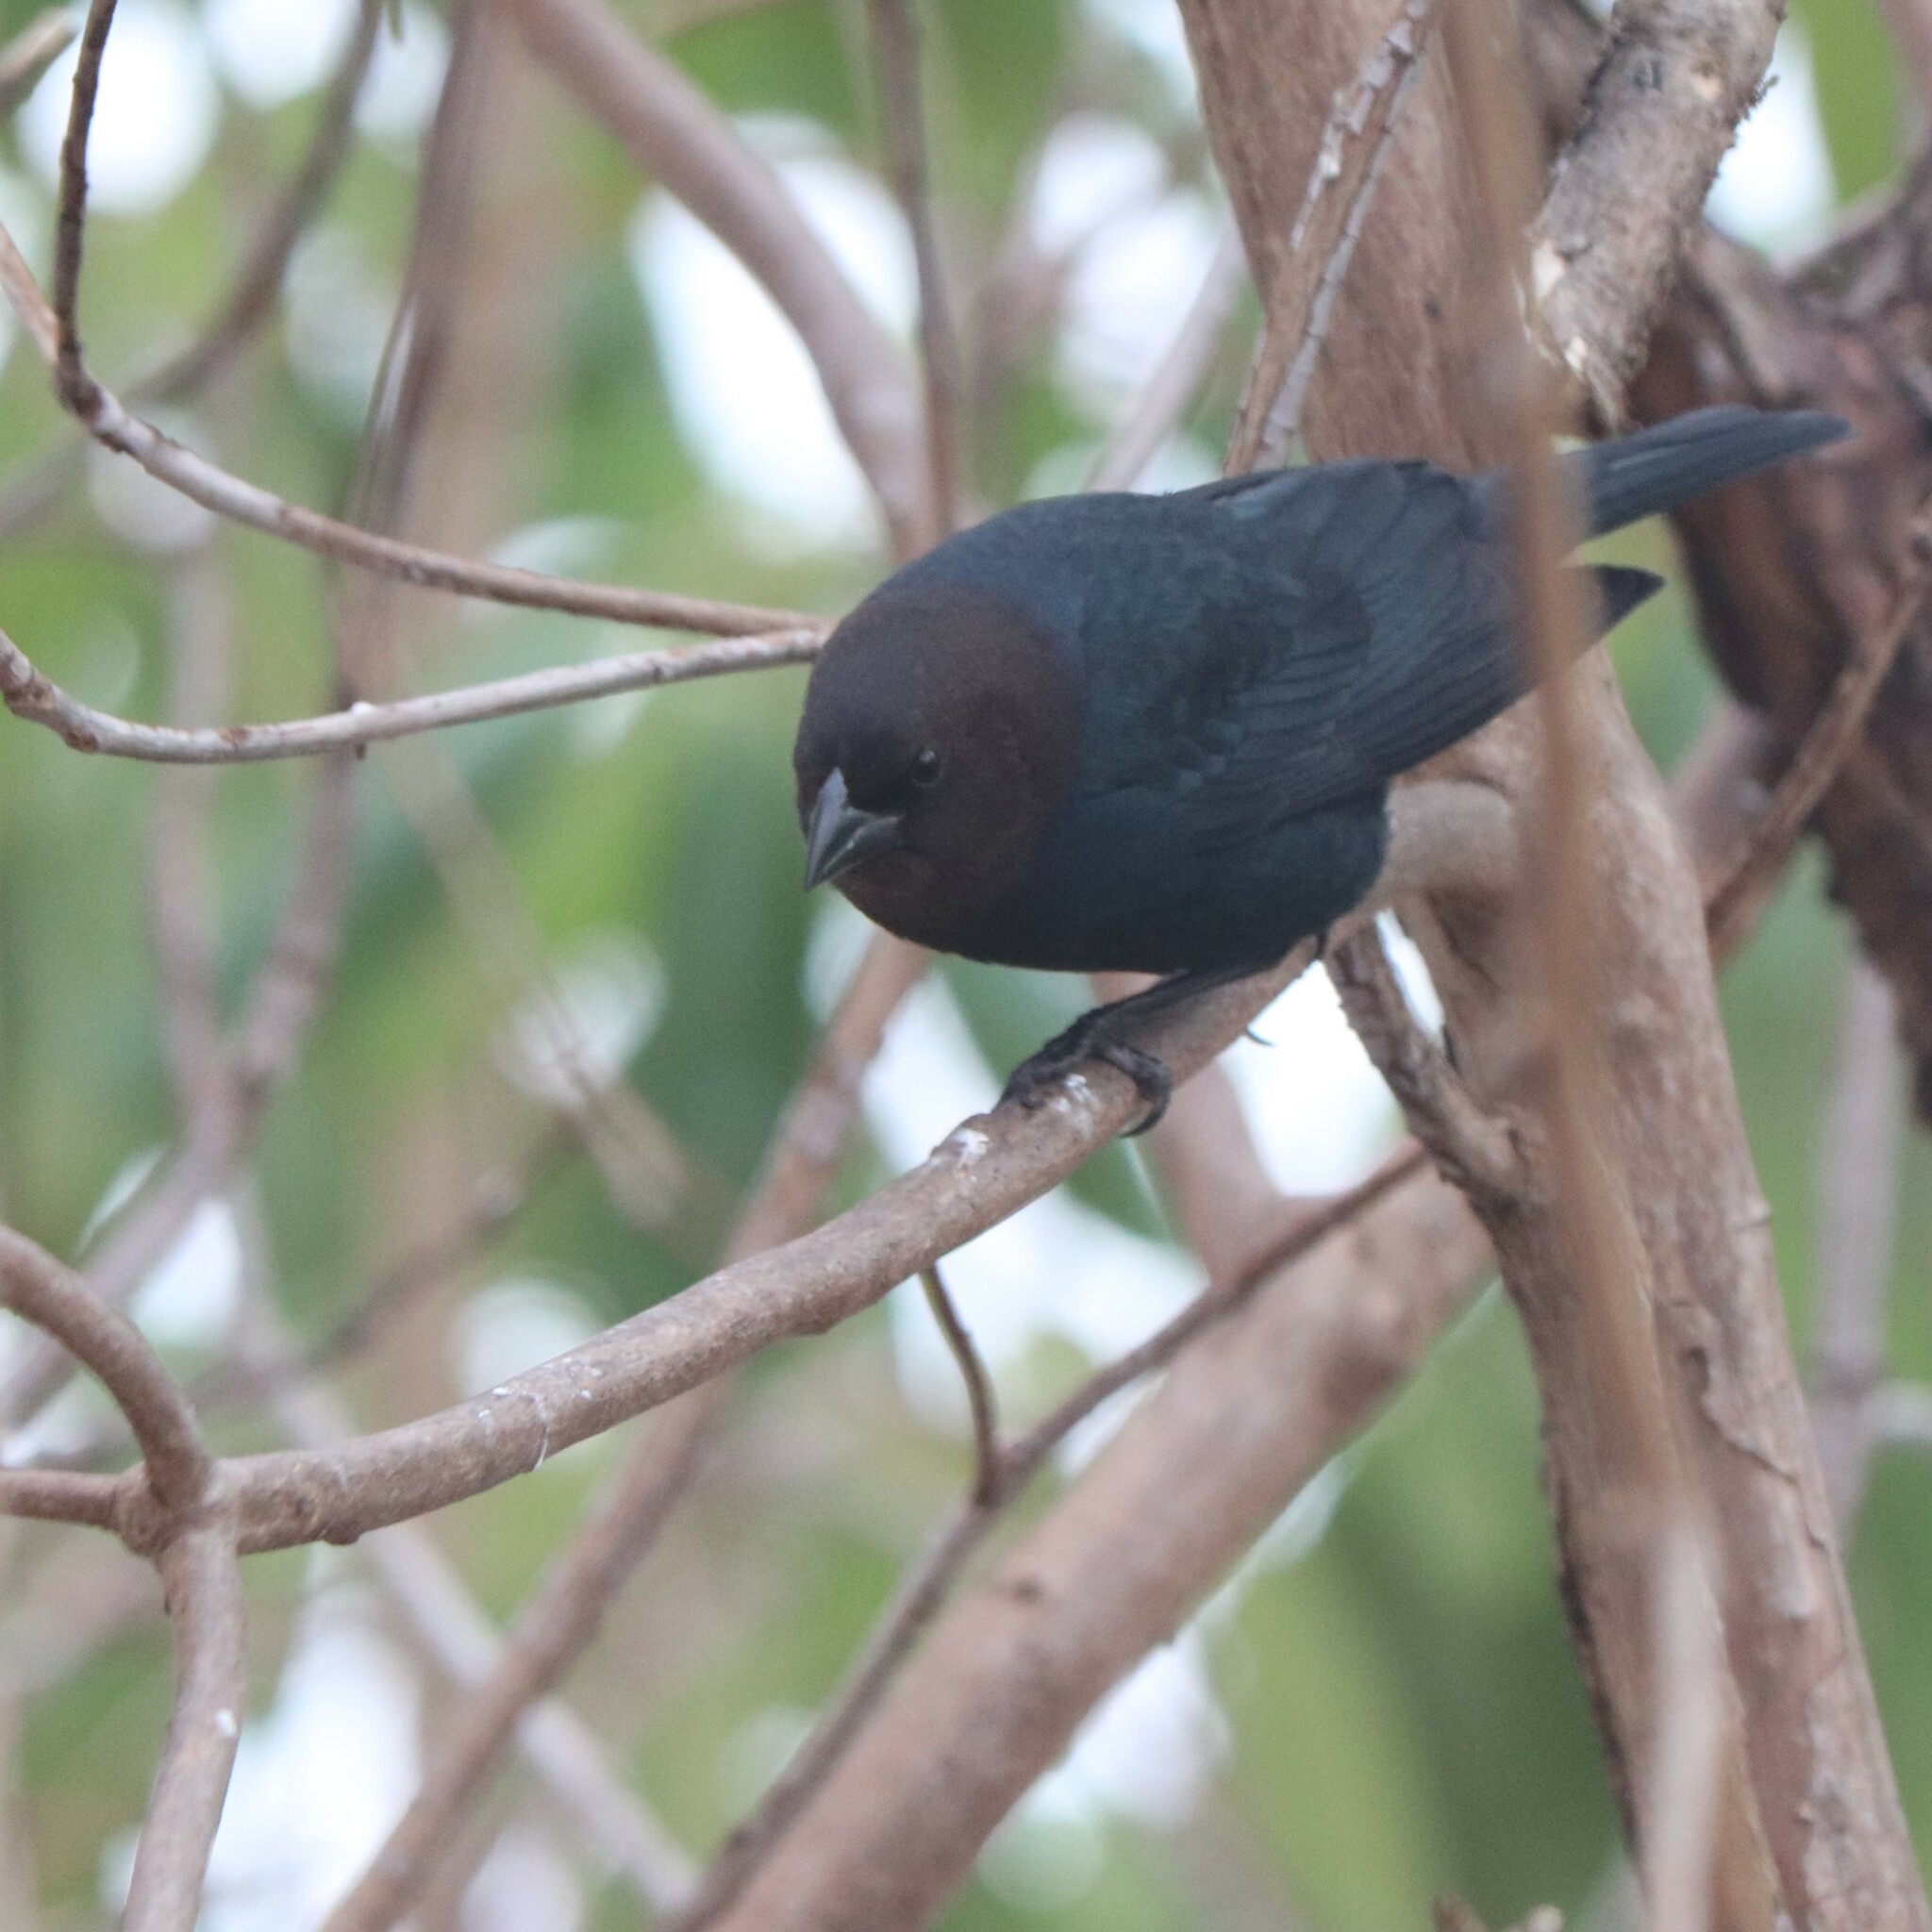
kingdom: Animalia
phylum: Chordata
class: Aves
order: Passeriformes
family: Icteridae
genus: Molothrus
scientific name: Molothrus ater
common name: Brown-headed cowbird
